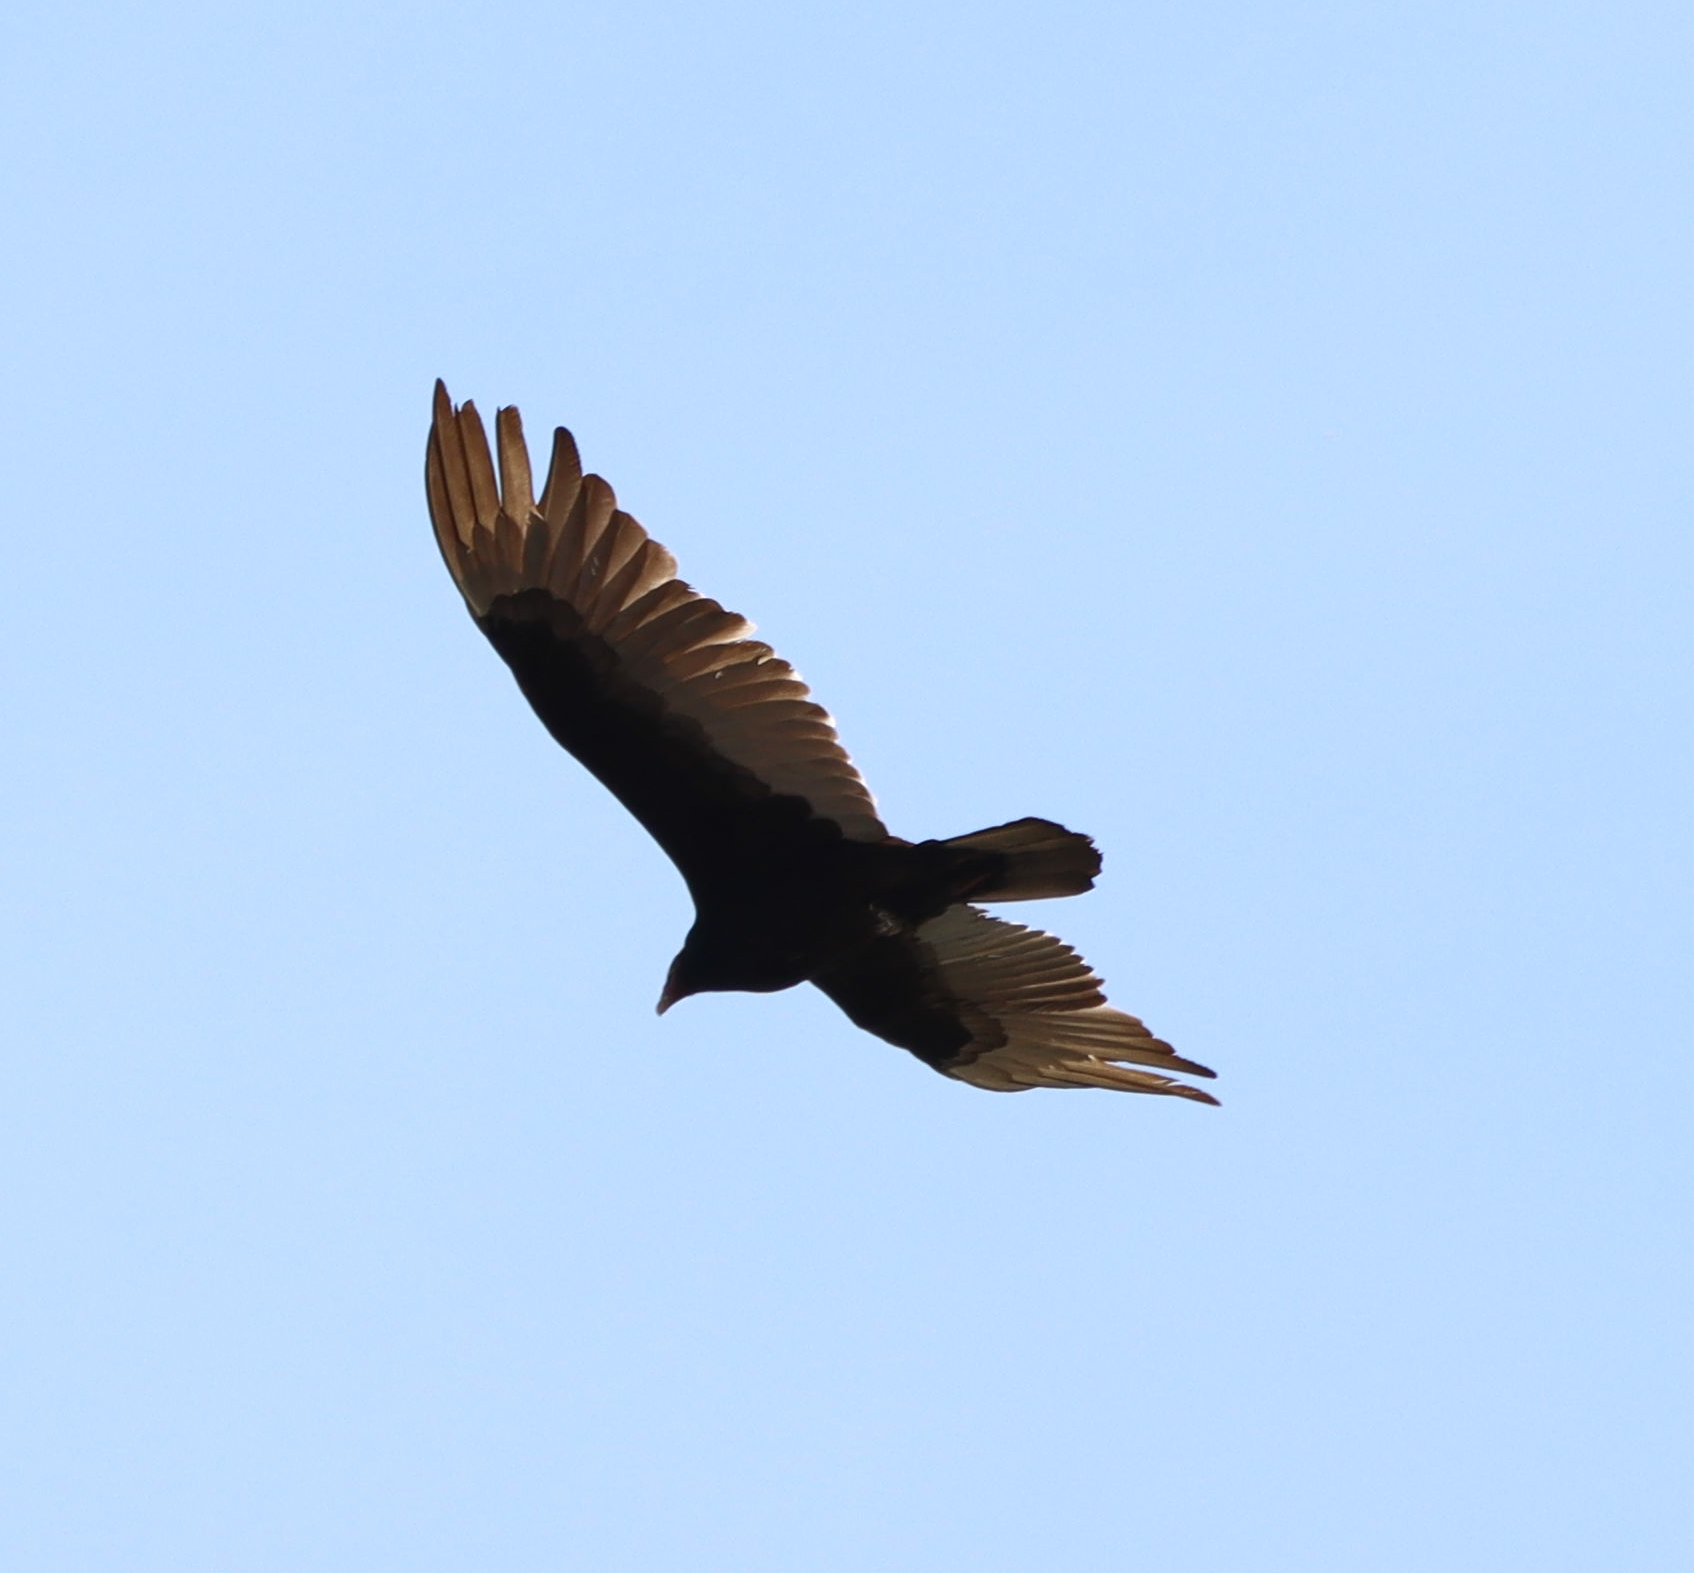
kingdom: Animalia
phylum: Chordata
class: Aves
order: Accipitriformes
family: Cathartidae
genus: Cathartes
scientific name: Cathartes aura
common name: Turkey vulture
